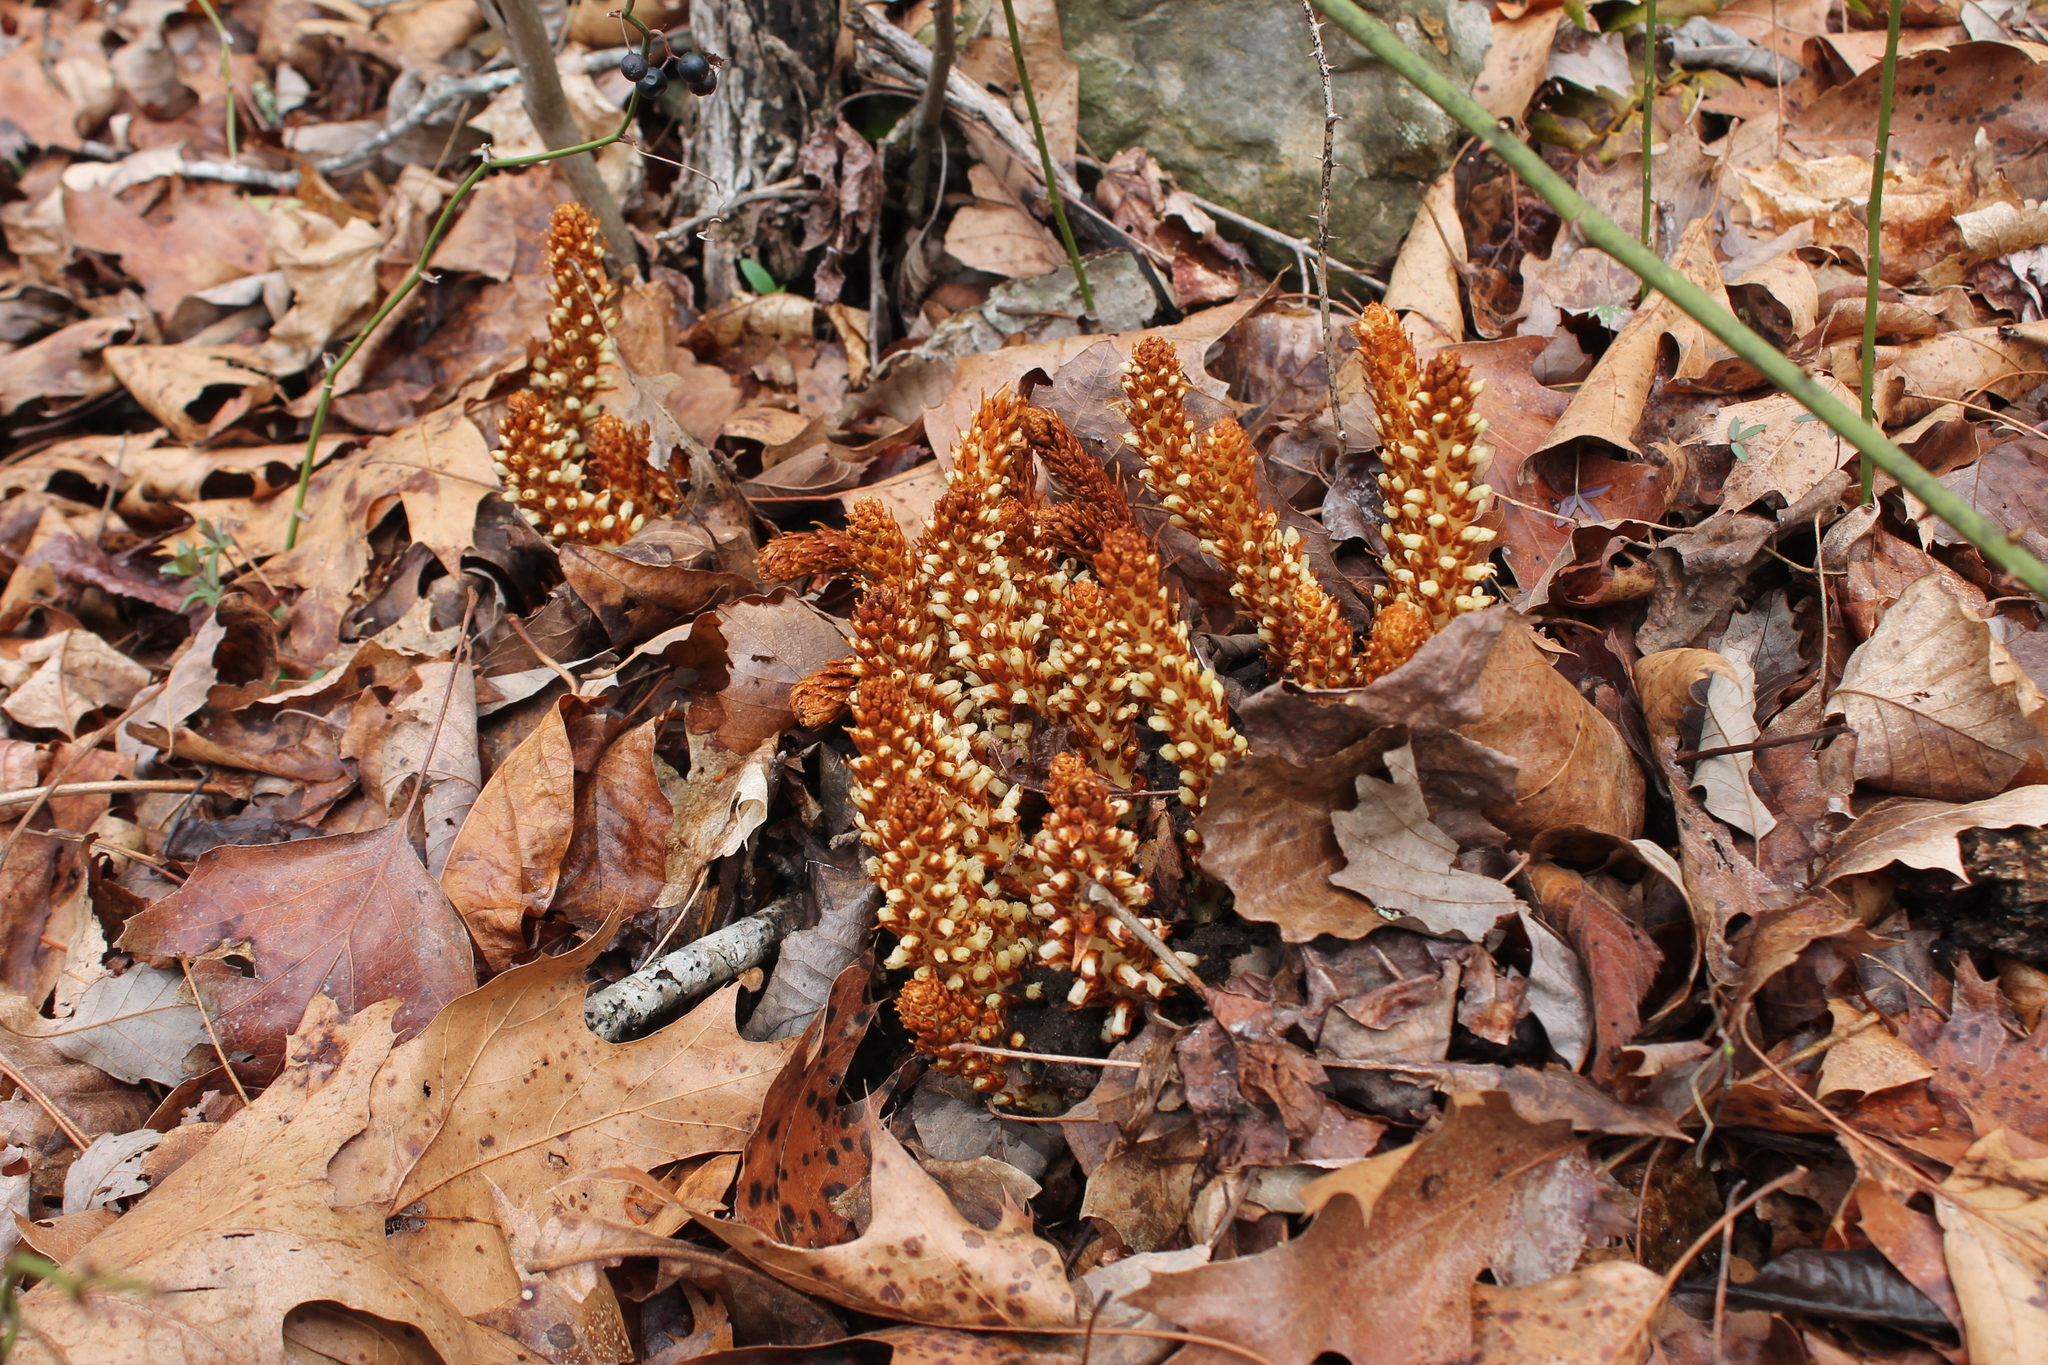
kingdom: Plantae
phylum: Tracheophyta
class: Magnoliopsida
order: Lamiales
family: Orobanchaceae
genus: Conopholis
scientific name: Conopholis americana
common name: American cancer-root
